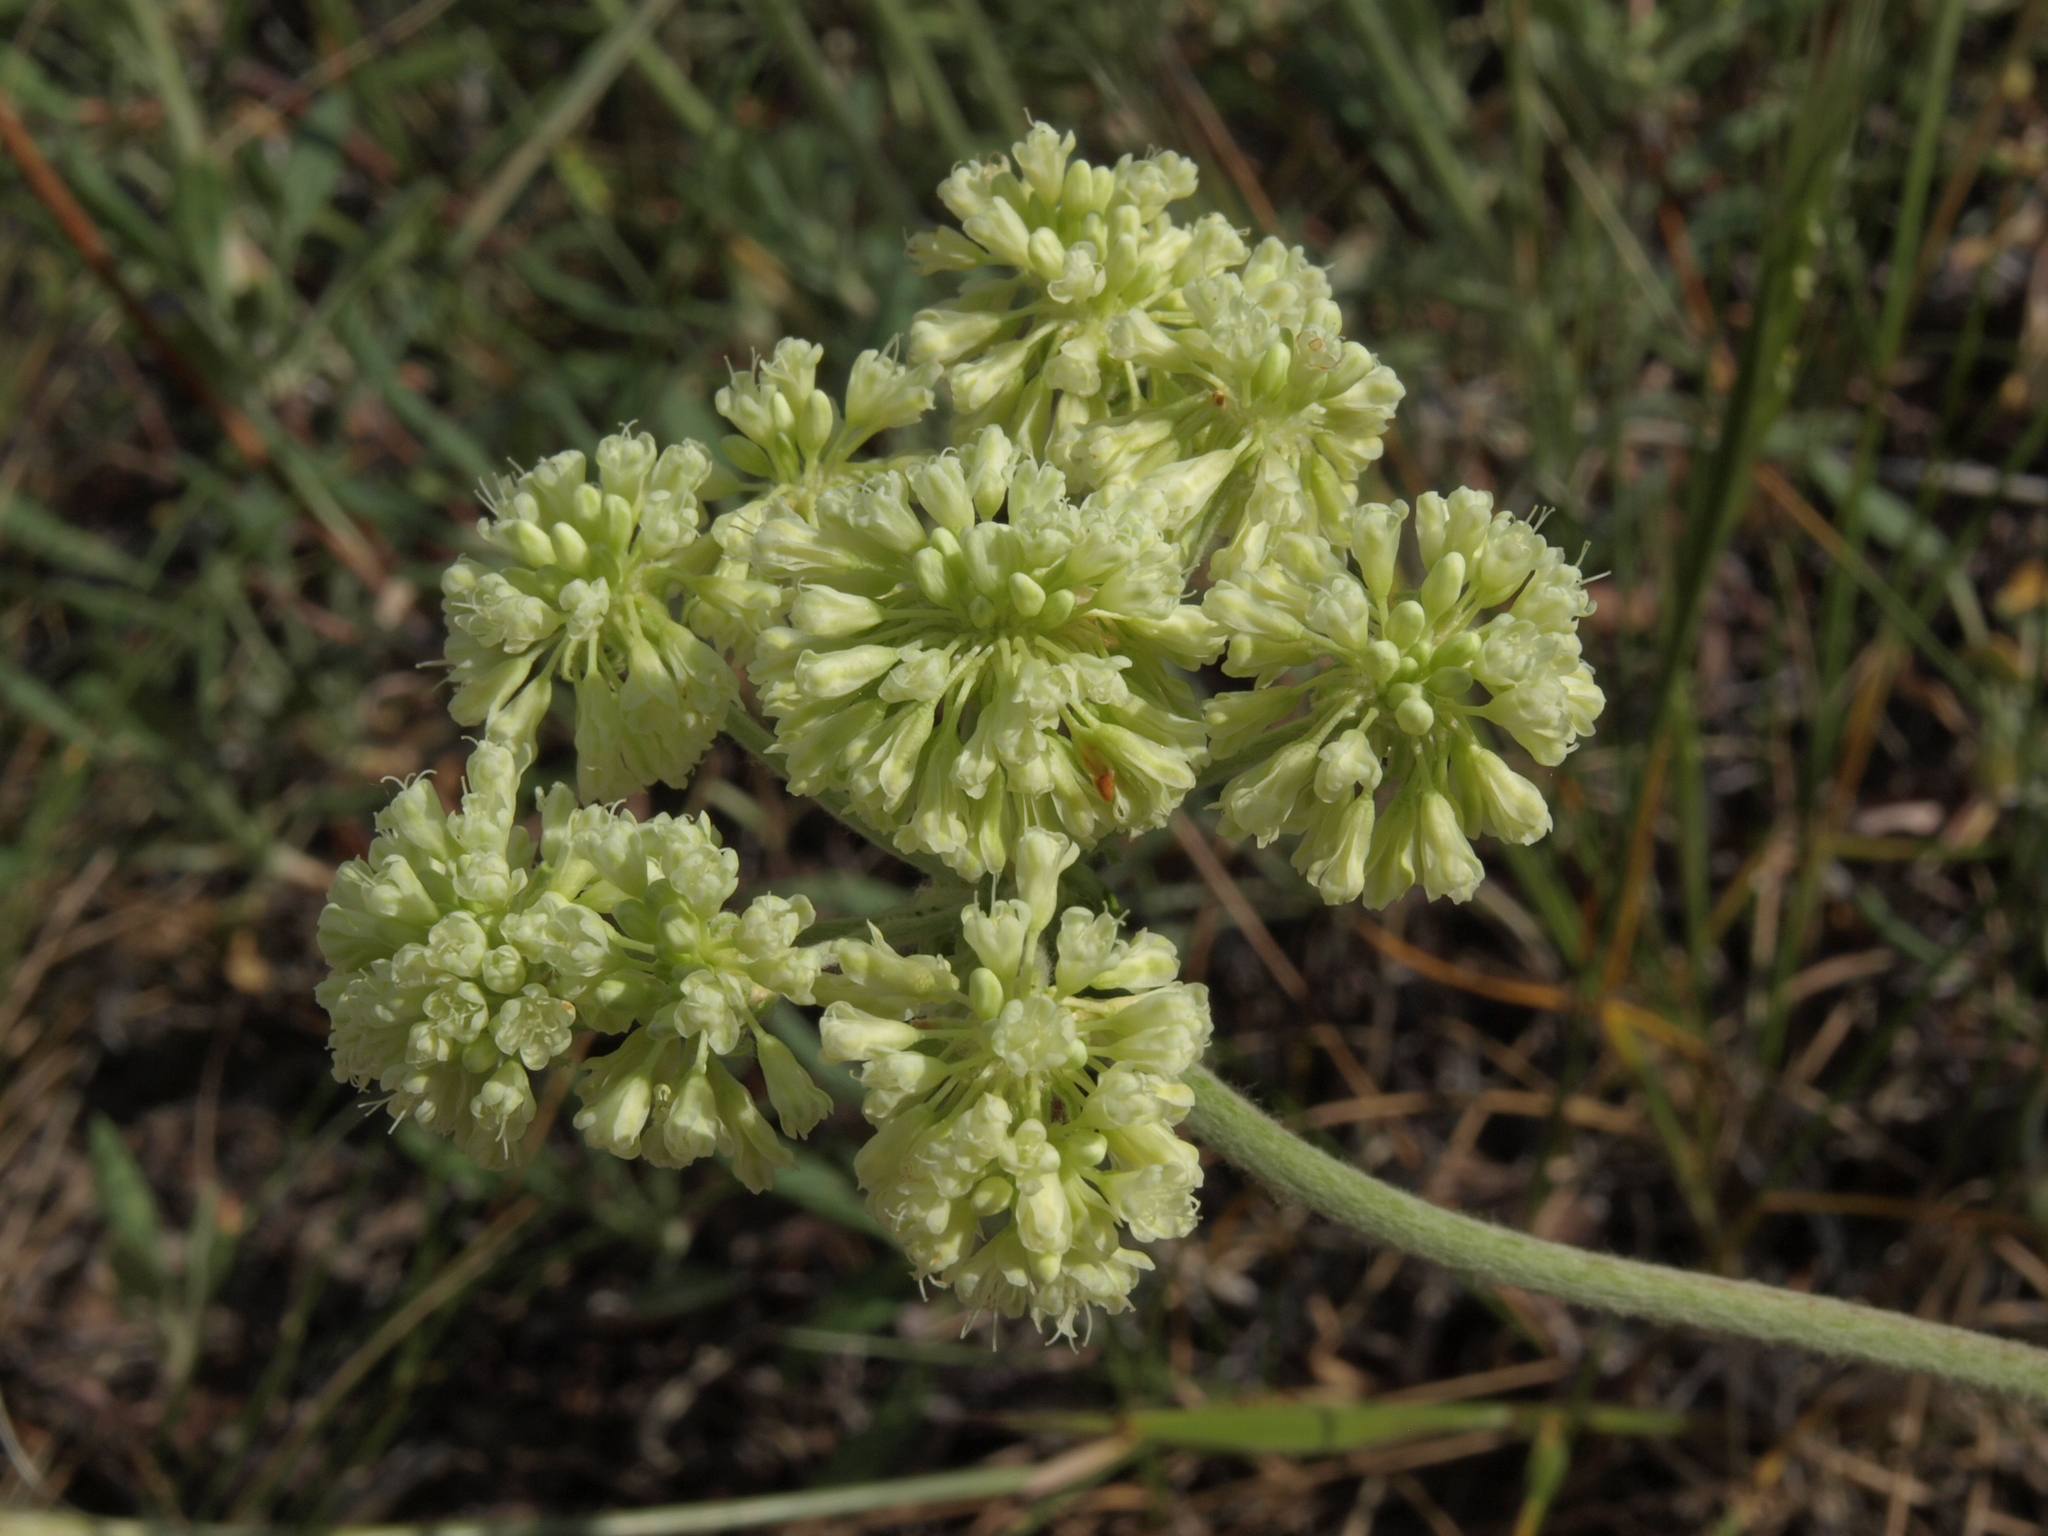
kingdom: Plantae
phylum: Tracheophyta
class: Magnoliopsida
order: Caryophyllales
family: Polygonaceae
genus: Eriogonum
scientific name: Eriogonum heracleoides
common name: Wyeth's buckwheat
